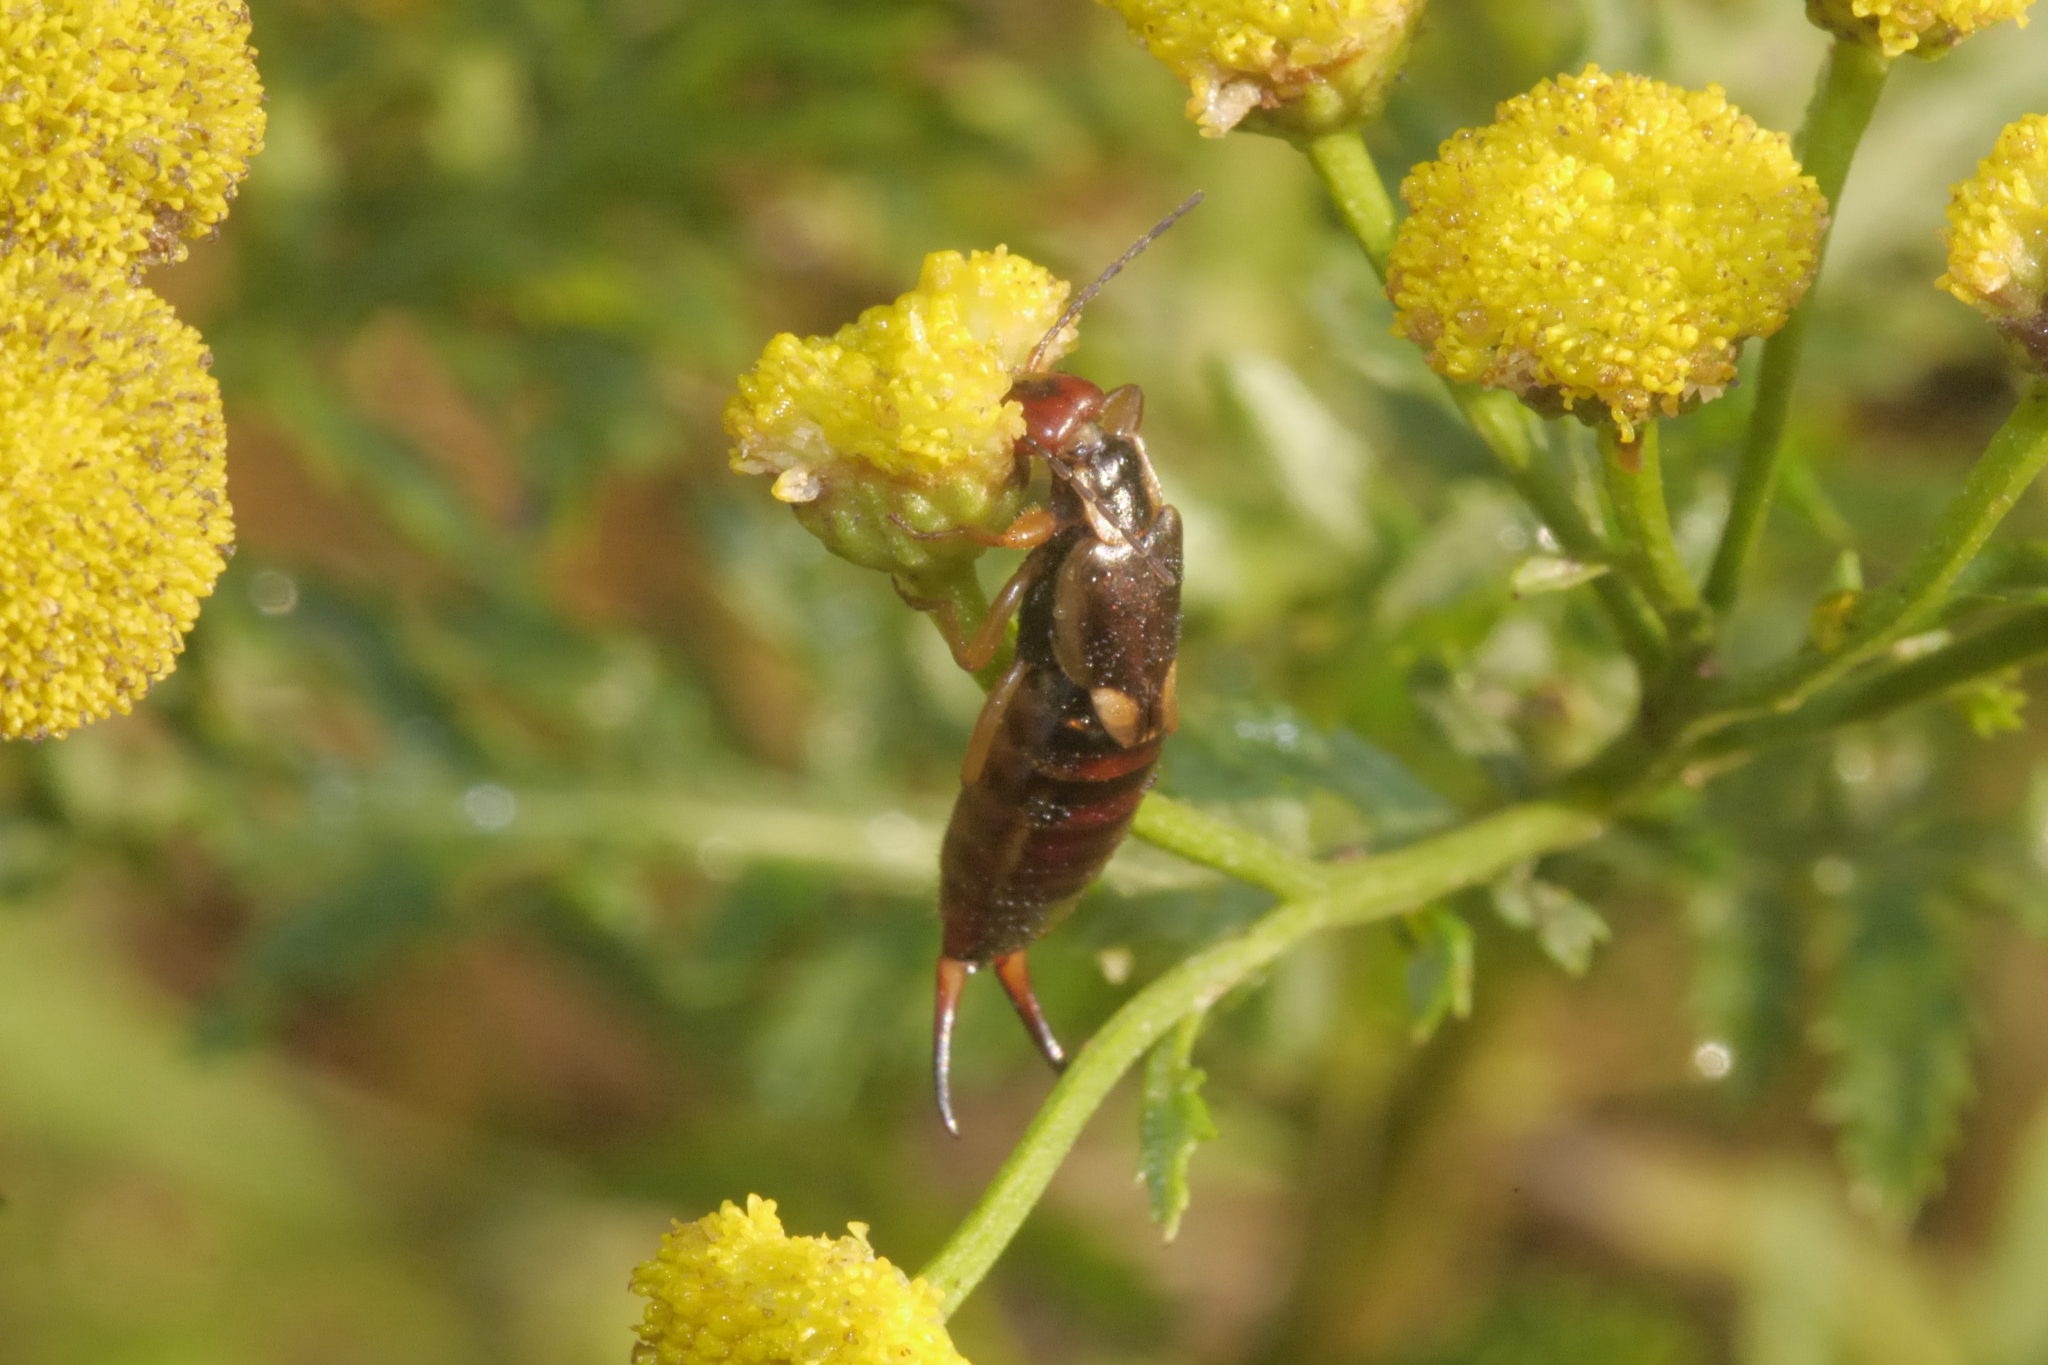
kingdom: Animalia
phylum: Arthropoda
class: Insecta
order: Dermaptera
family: Forficulidae
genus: Forficula
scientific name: Forficula
